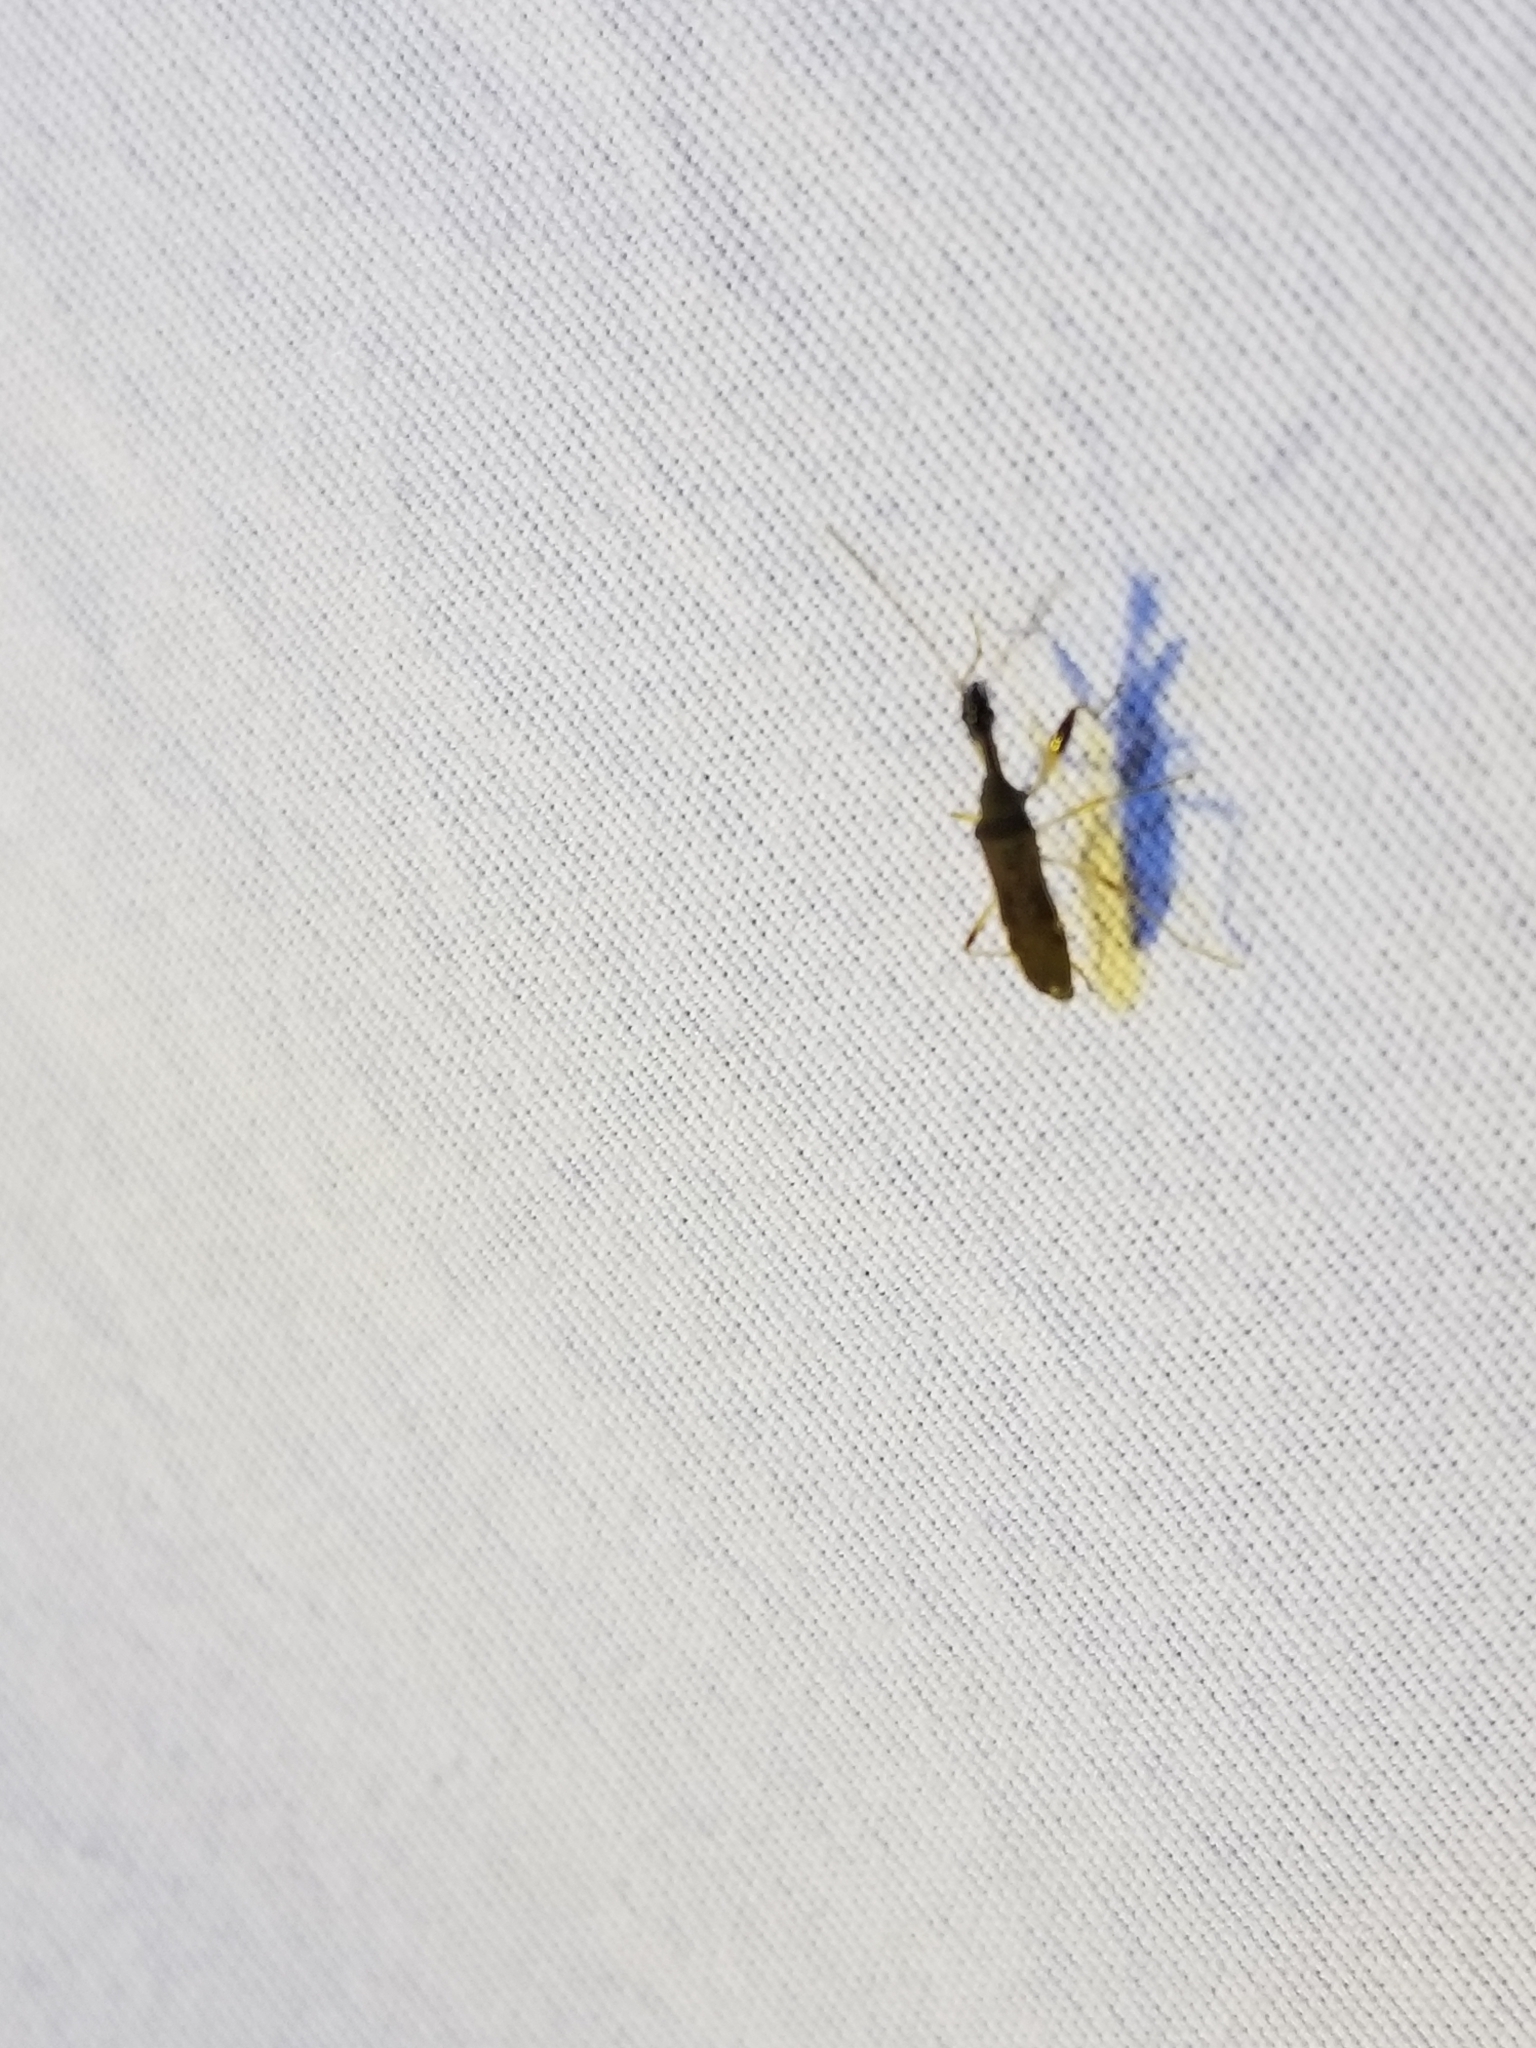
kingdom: Animalia
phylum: Arthropoda
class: Insecta
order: Hemiptera
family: Rhyparochromidae
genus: Myodocha
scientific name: Myodocha serripes
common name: Long-necked seed bug
